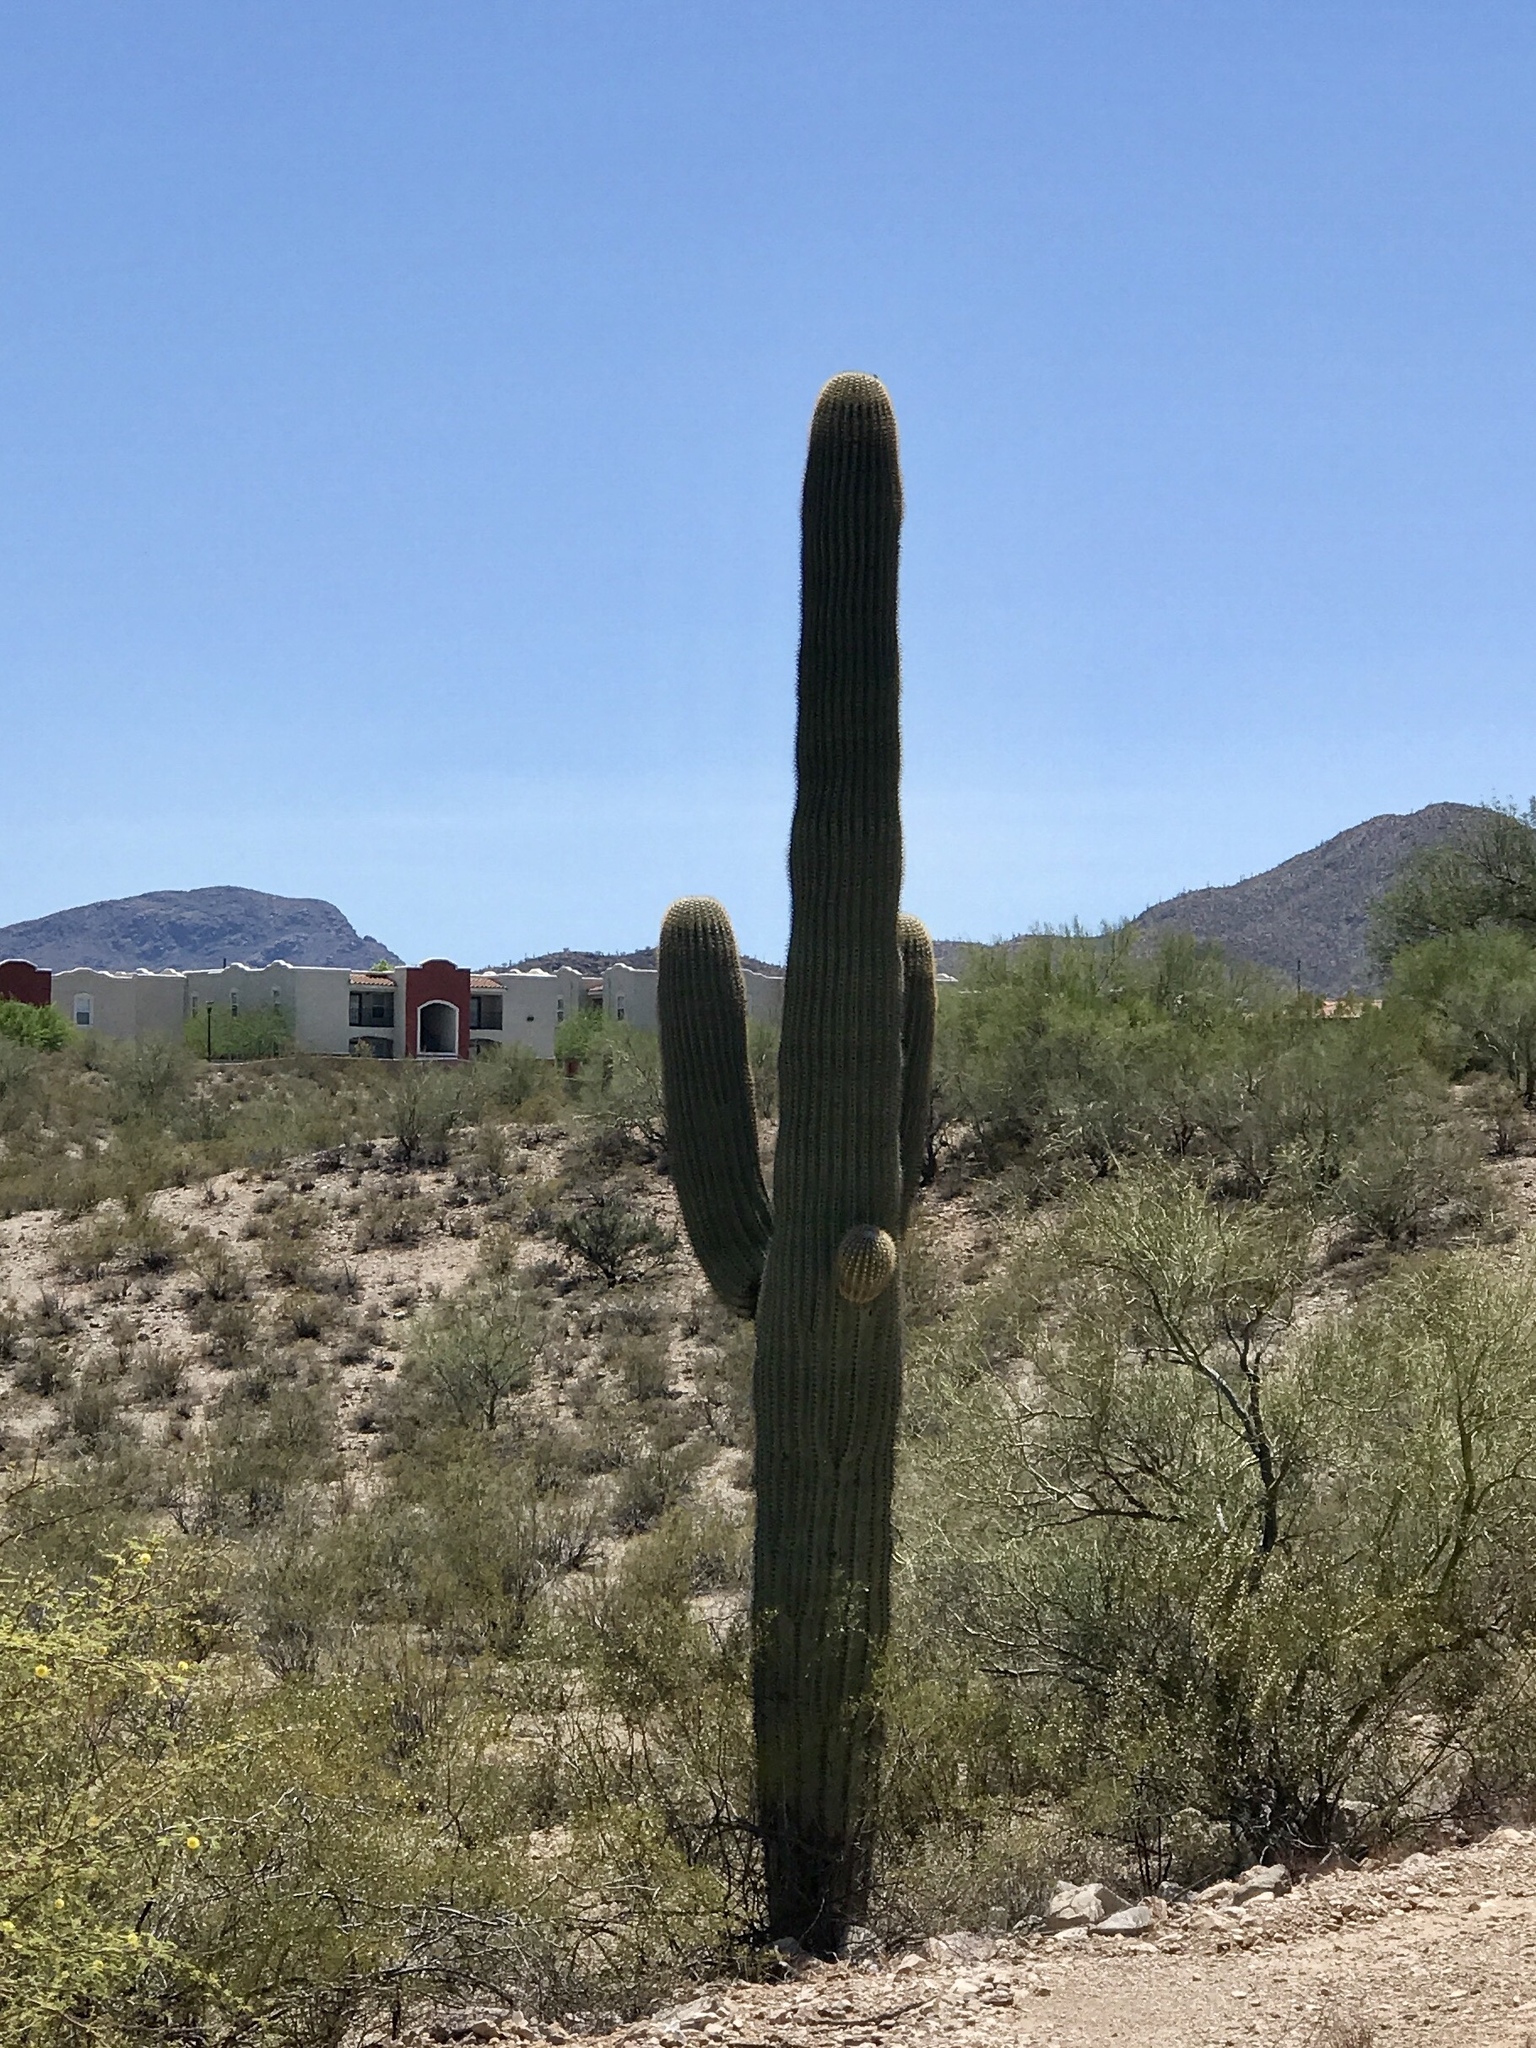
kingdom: Plantae
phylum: Tracheophyta
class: Magnoliopsida
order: Caryophyllales
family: Cactaceae
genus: Carnegiea
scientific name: Carnegiea gigantea
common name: Saguaro
